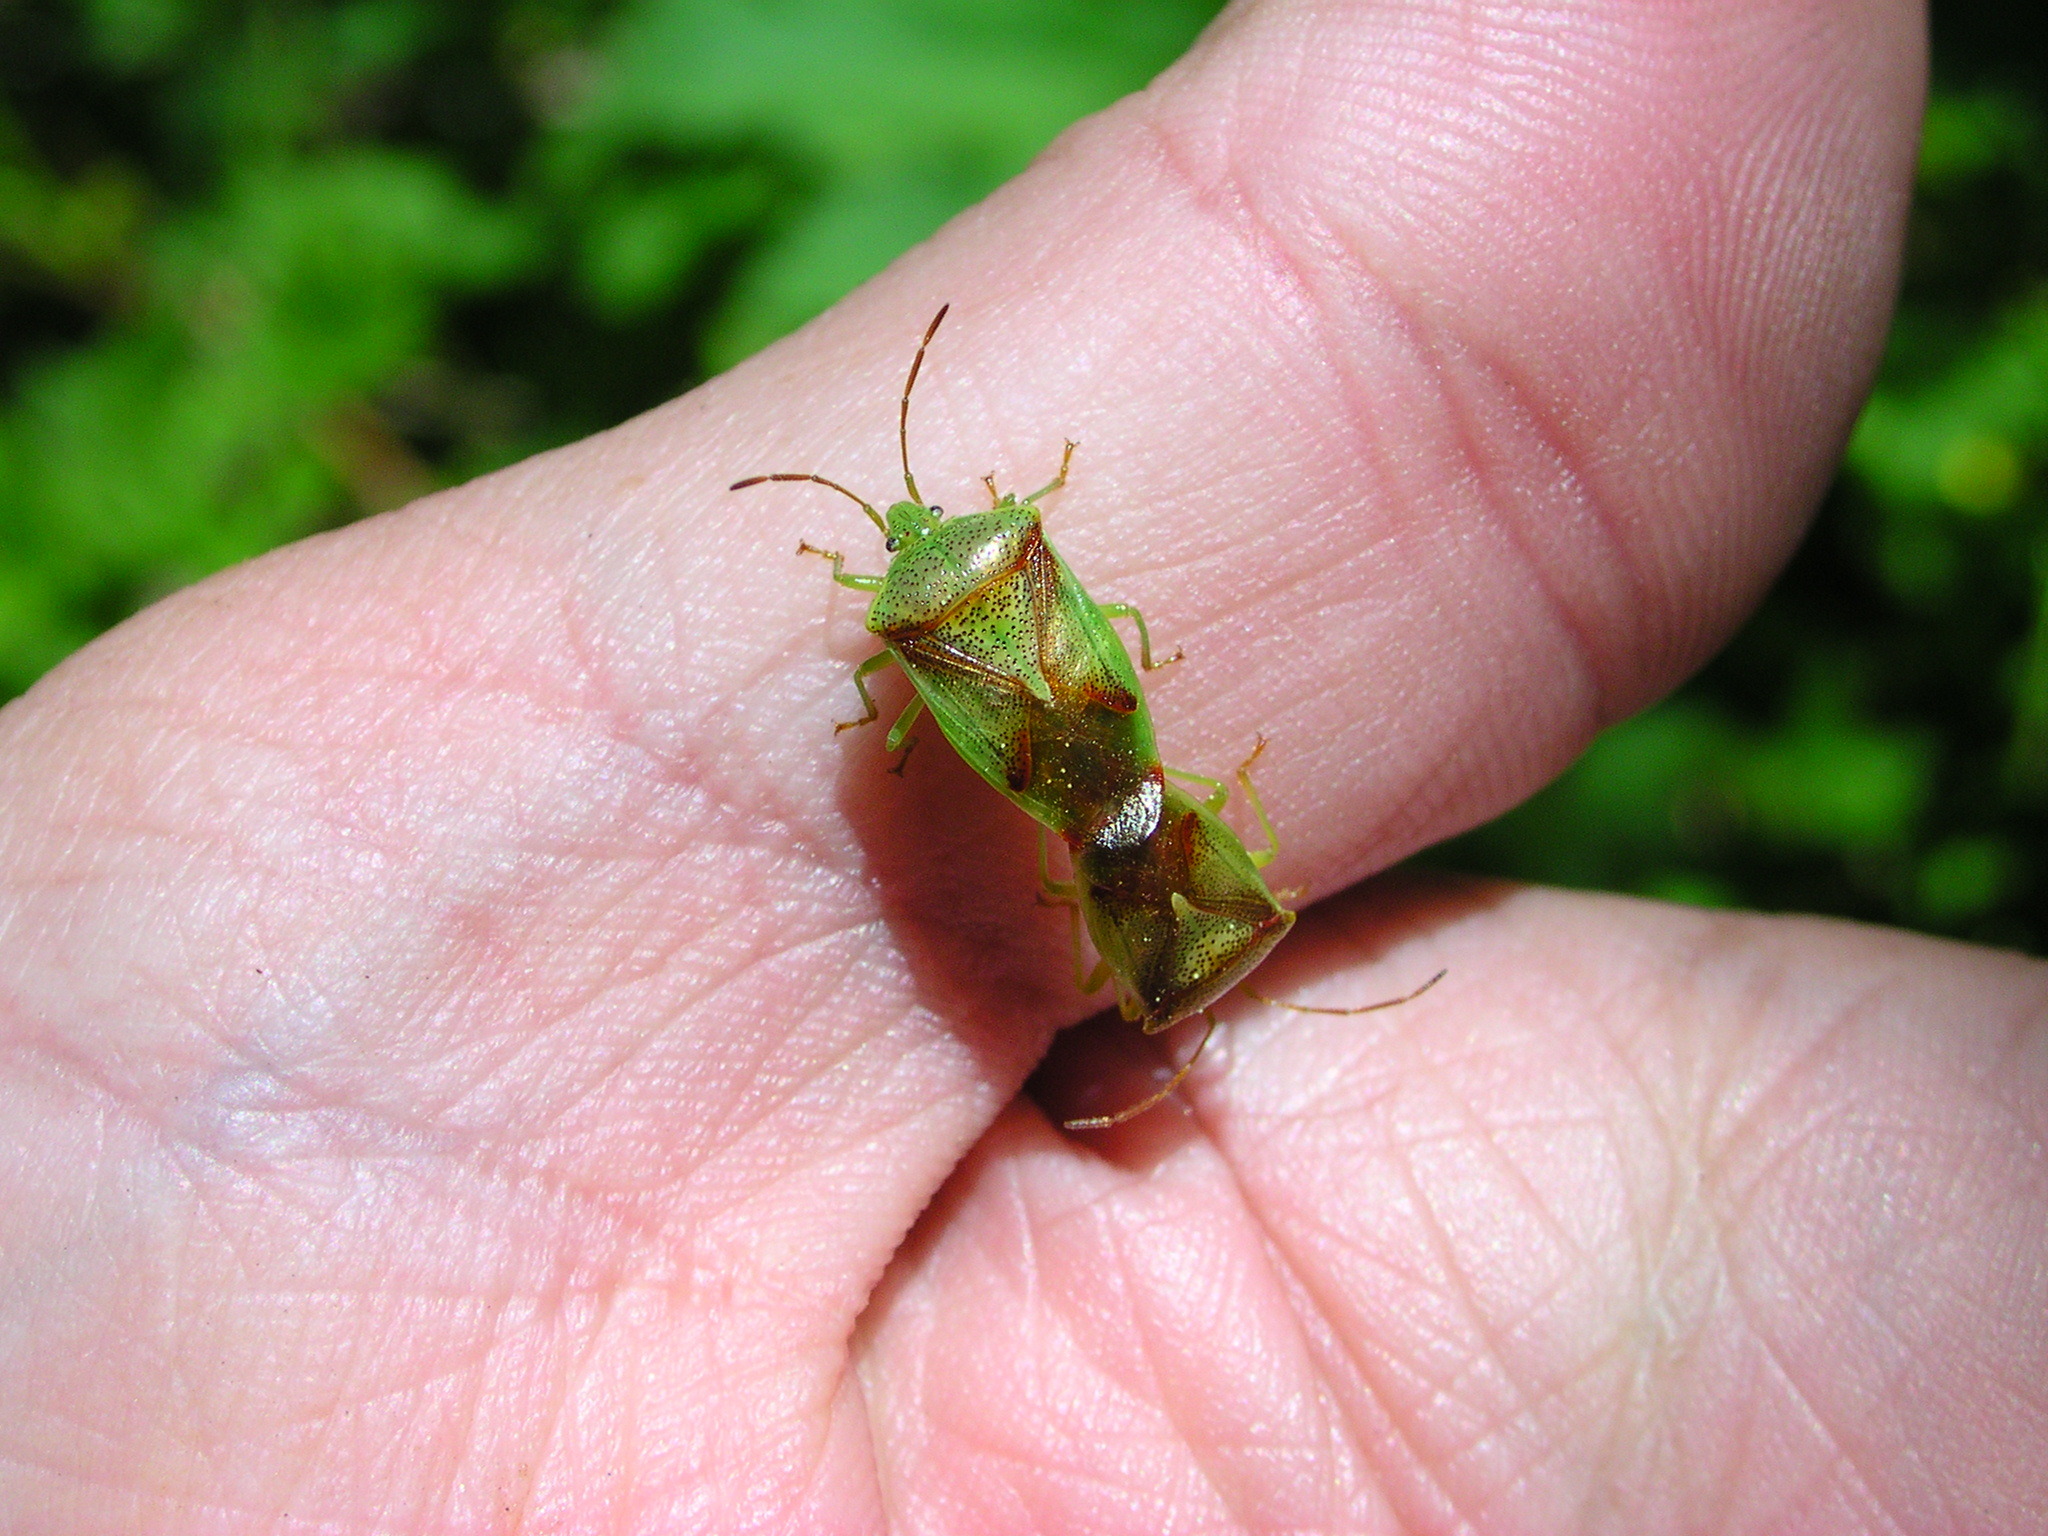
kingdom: Animalia
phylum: Arthropoda
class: Insecta
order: Hemiptera
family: Acanthosomatidae
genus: Elasmostethus
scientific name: Elasmostethus cruciatus
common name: Red-cross shield bug
